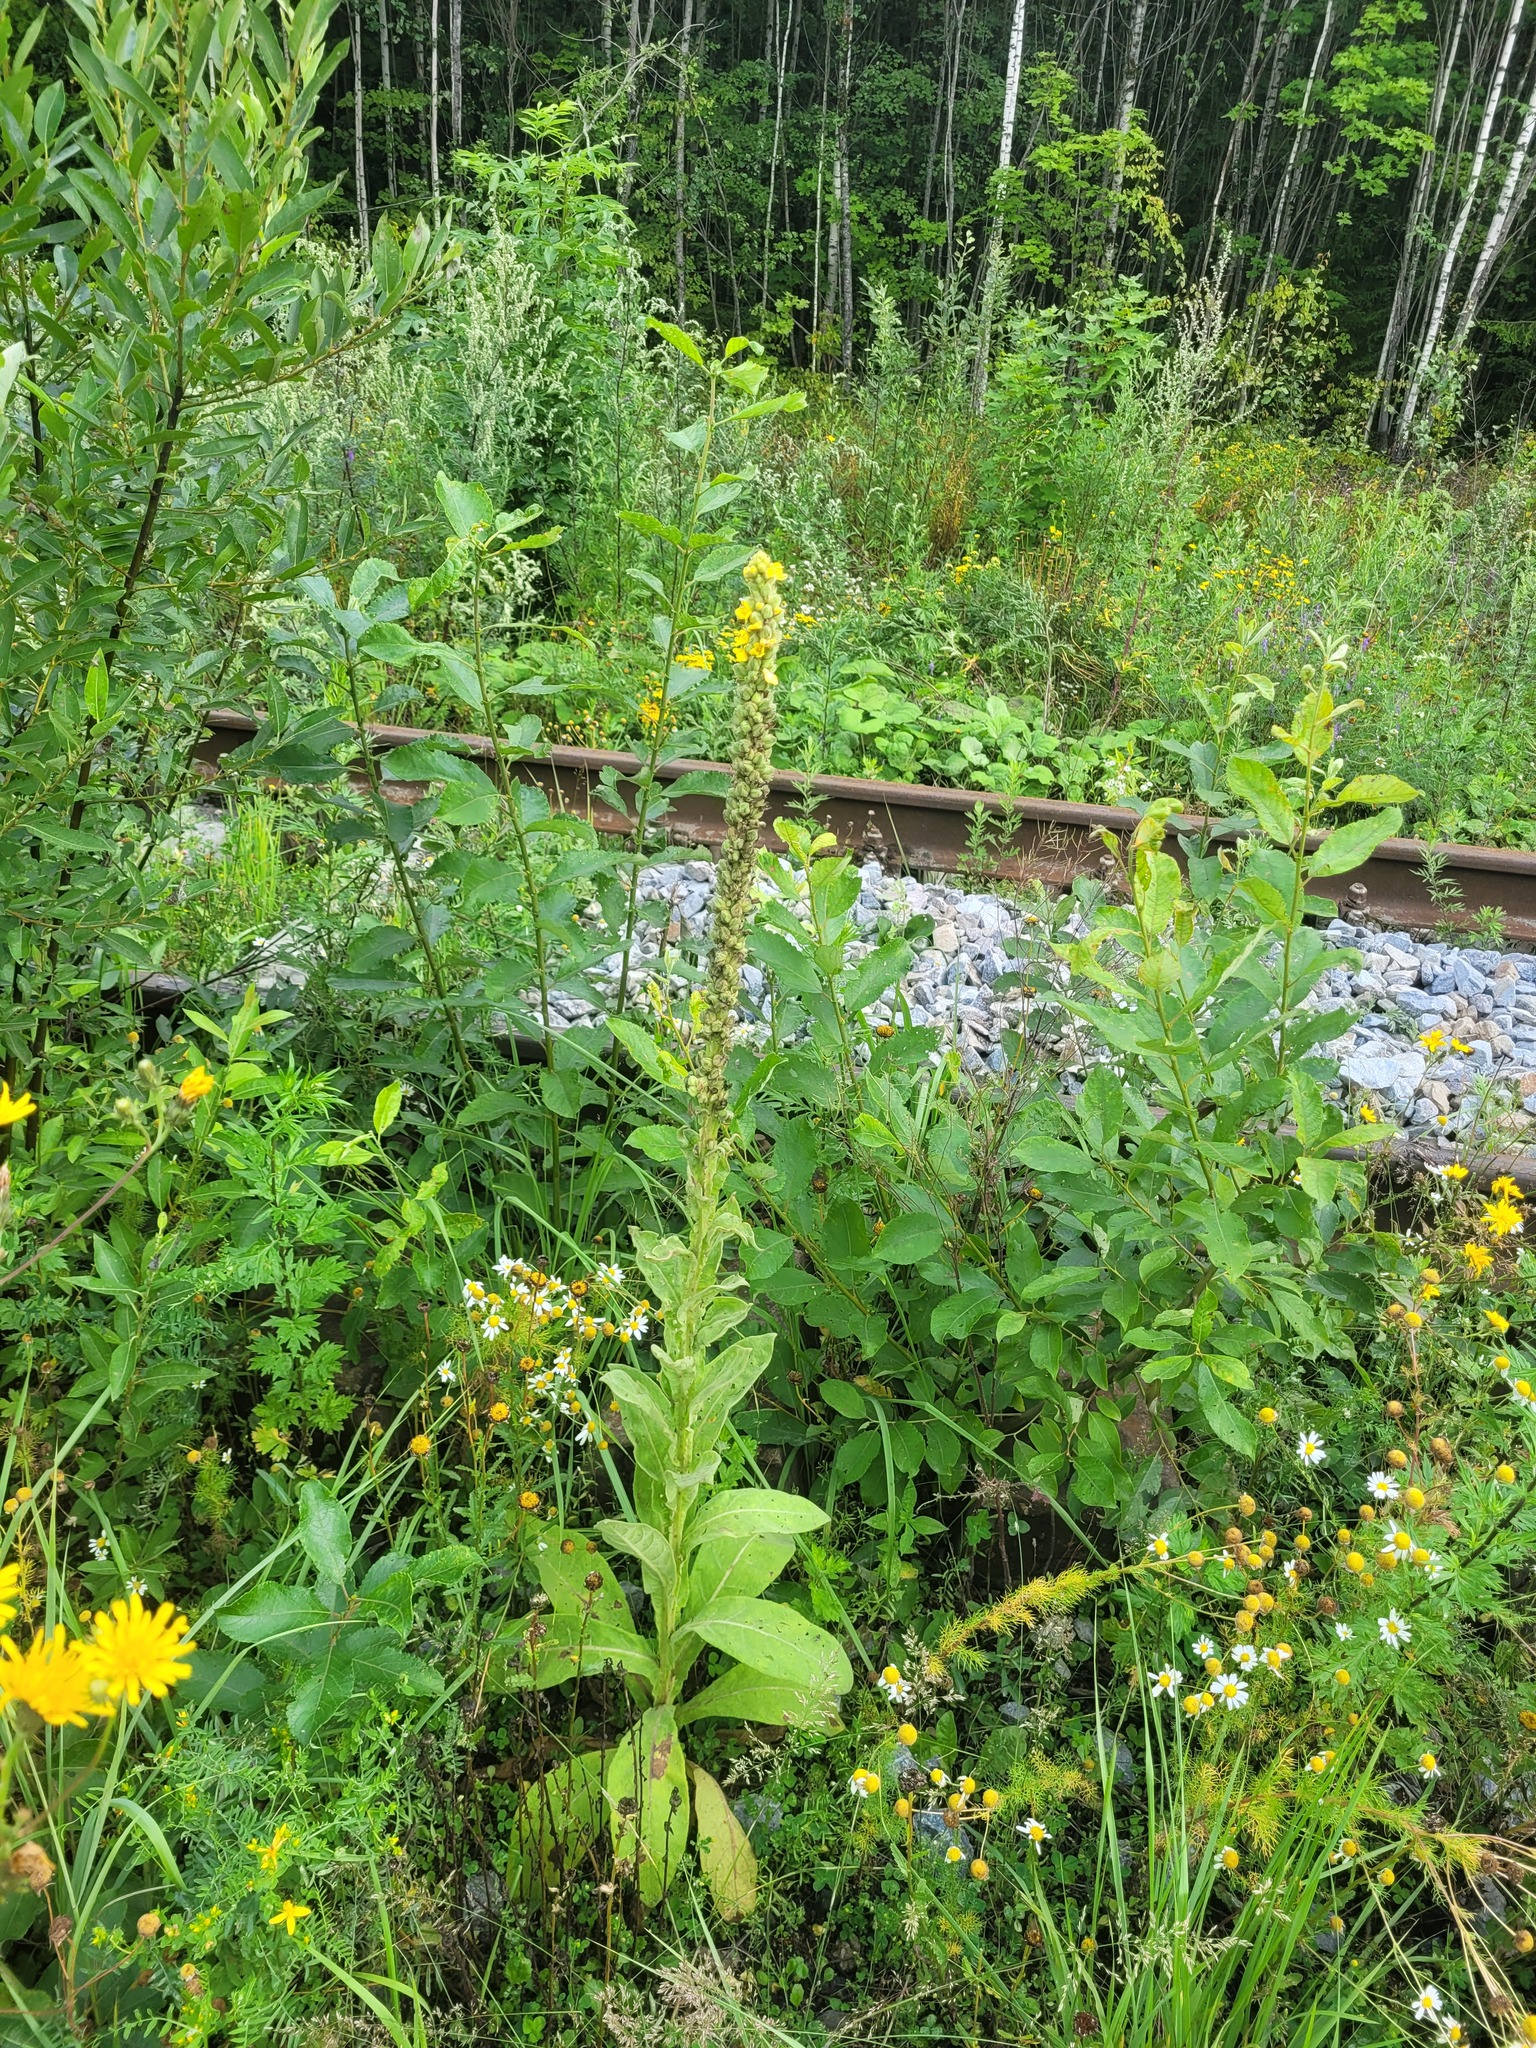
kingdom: Plantae
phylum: Tracheophyta
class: Magnoliopsida
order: Lamiales
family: Scrophulariaceae
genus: Verbascum
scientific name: Verbascum thapsus
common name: Common mullein
